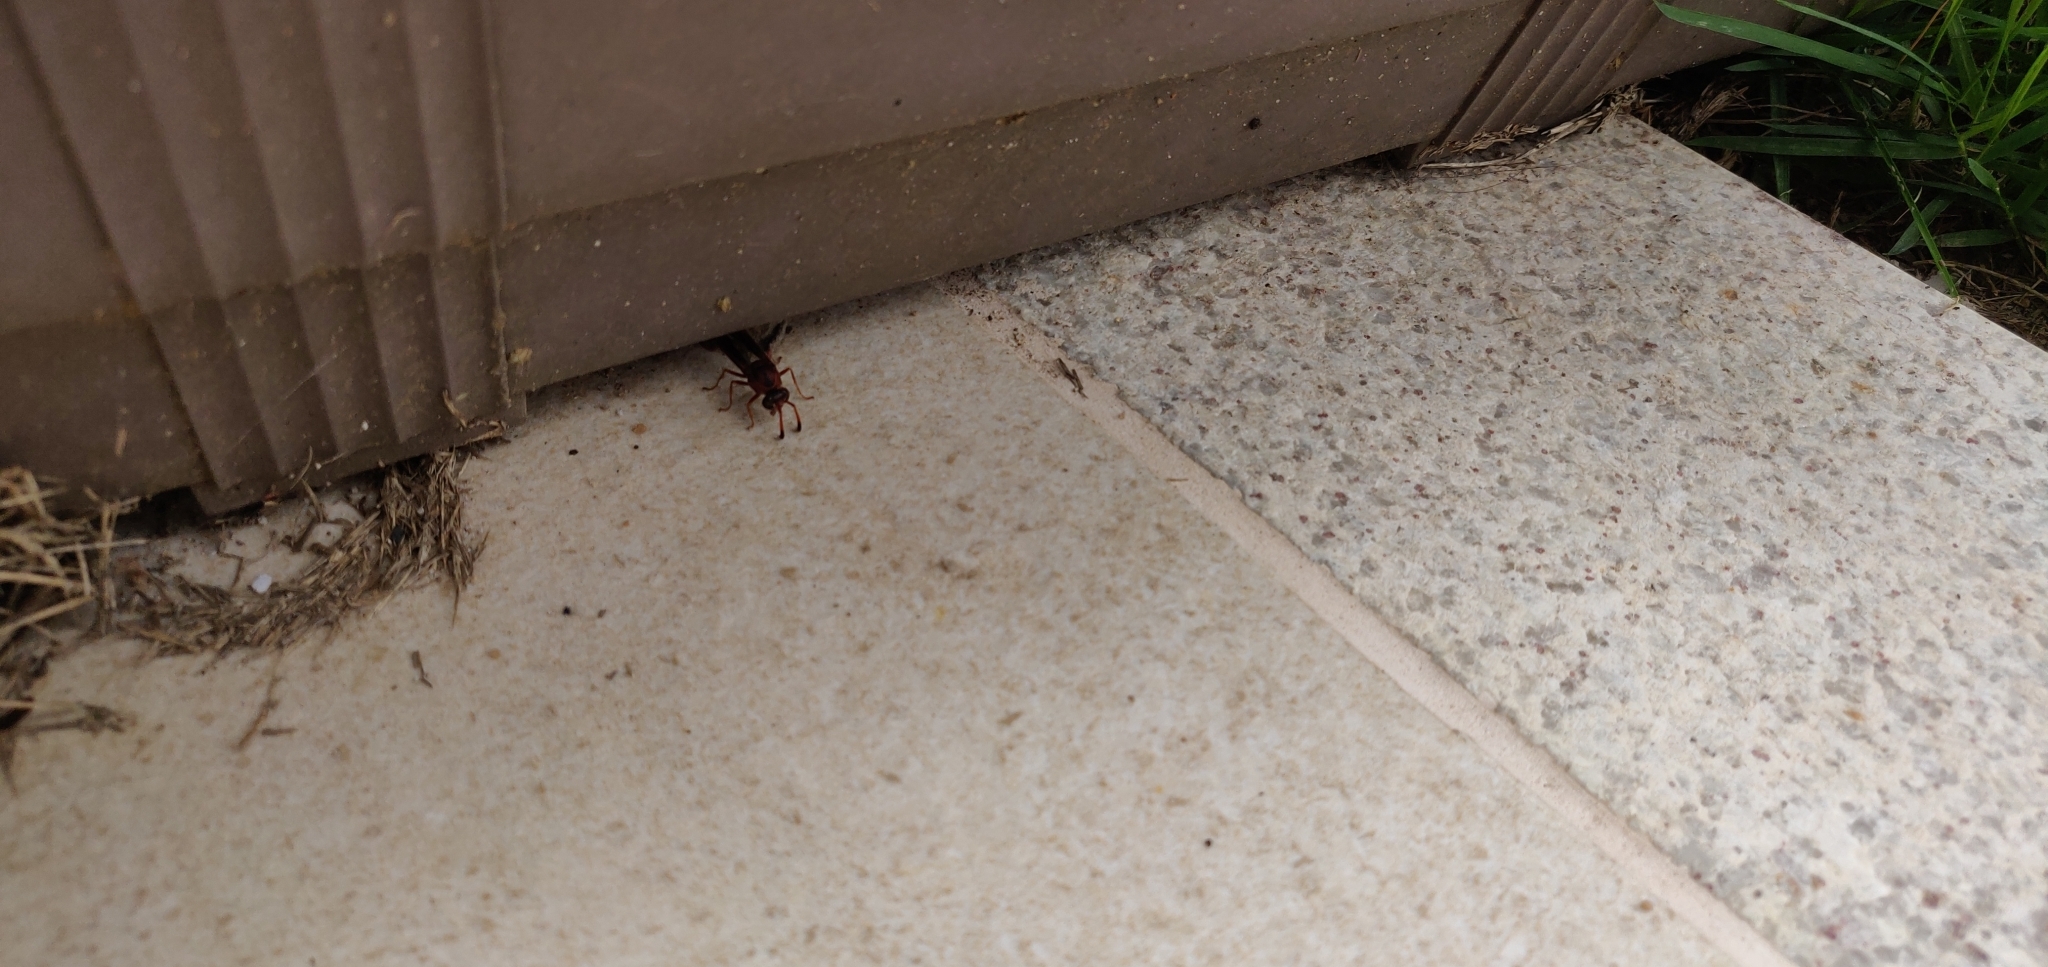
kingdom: Animalia
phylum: Arthropoda
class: Insecta
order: Hymenoptera
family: Eumenidae
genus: Zeta
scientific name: Zeta argillaceum
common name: Potter wasp
